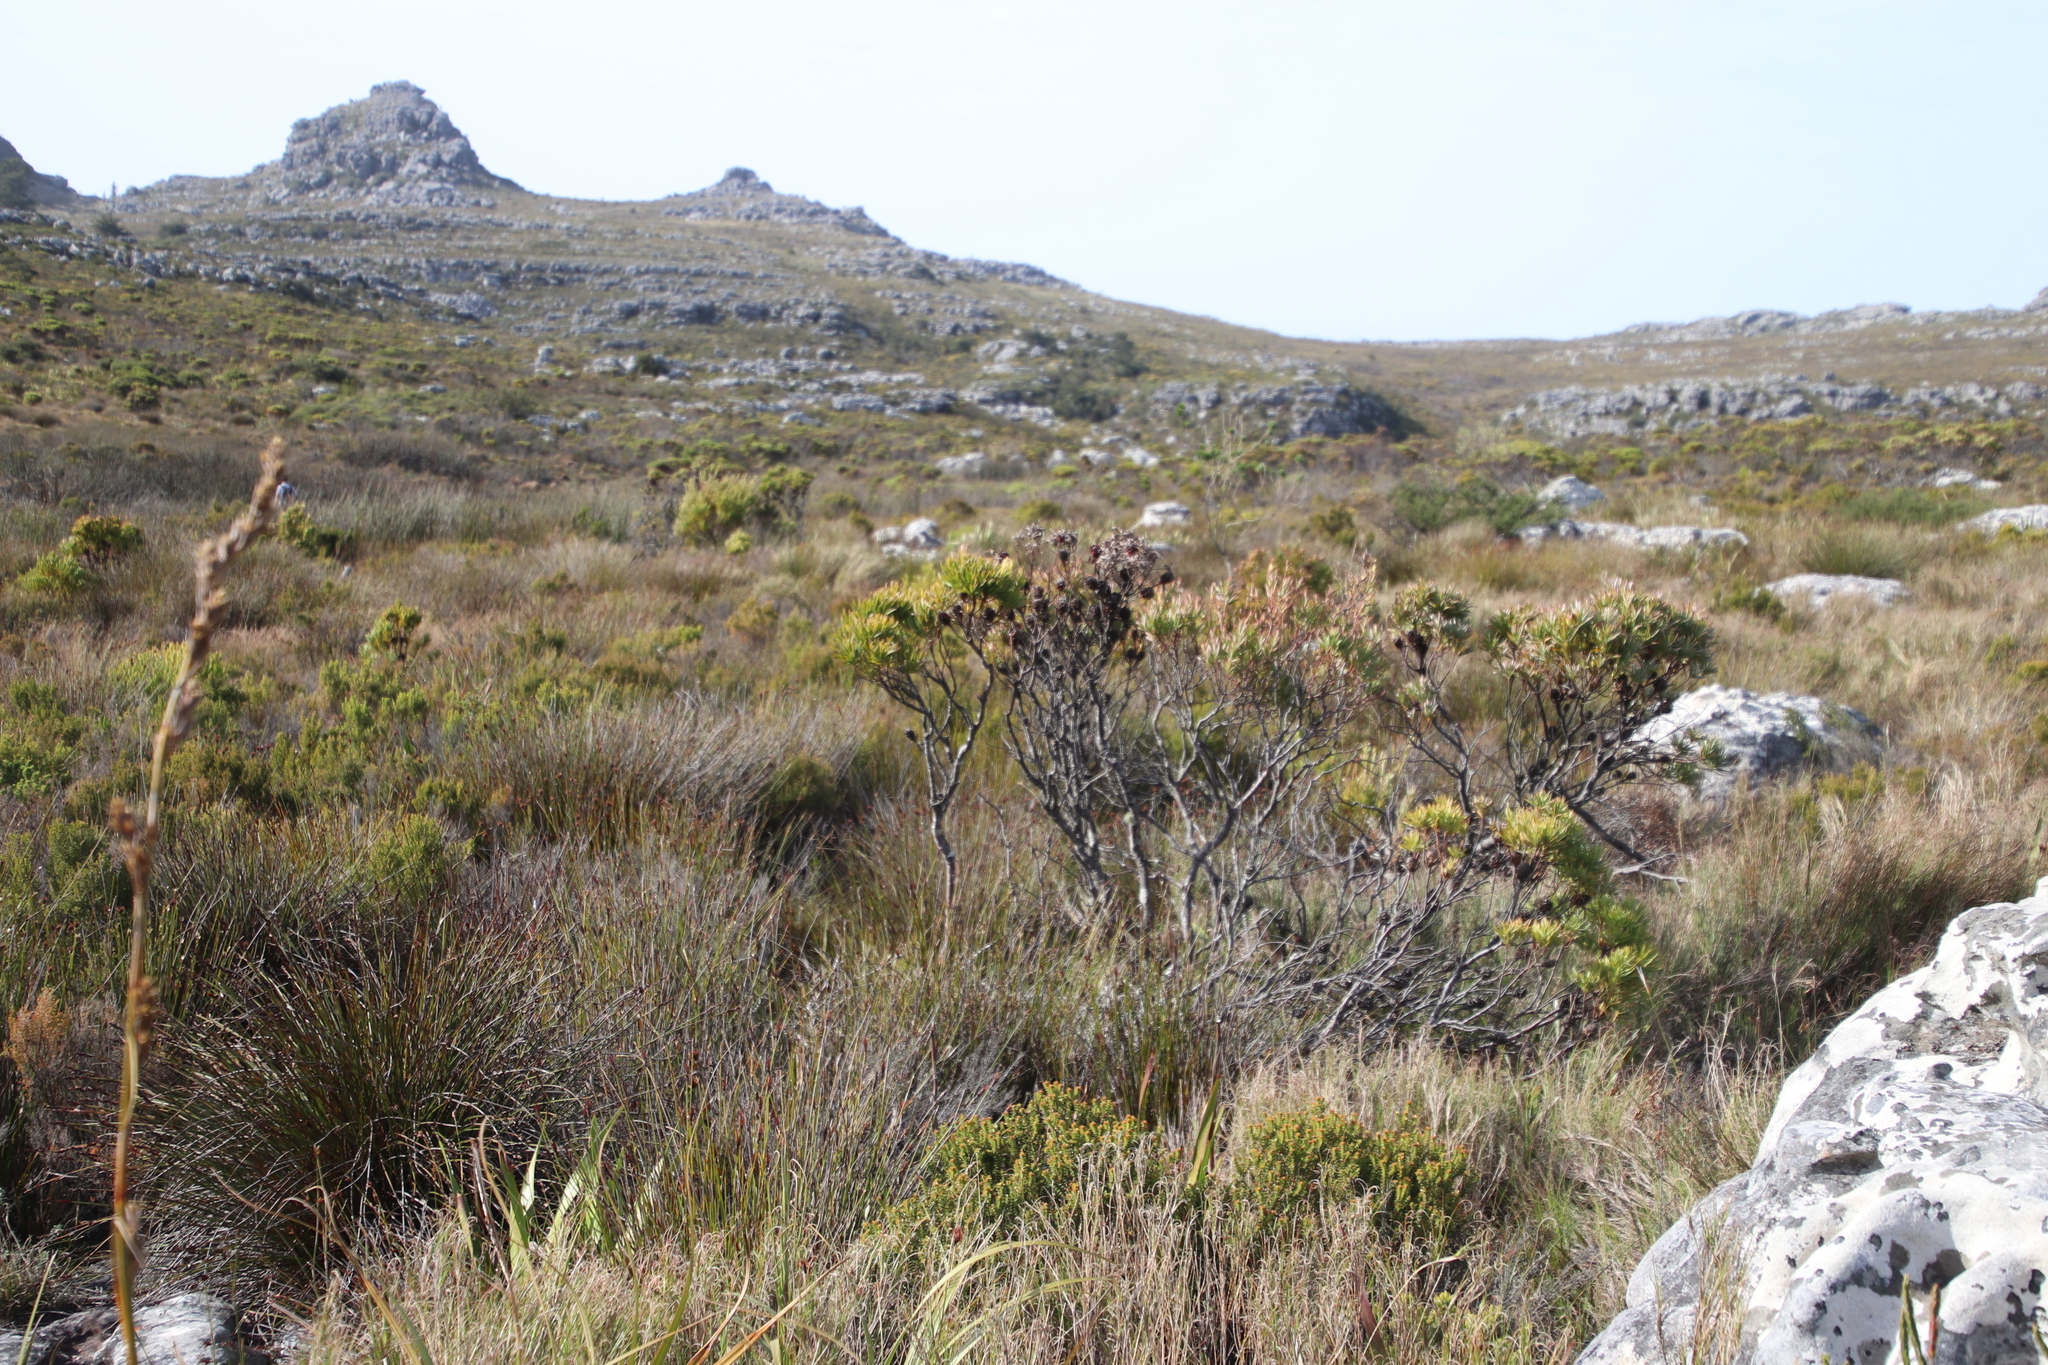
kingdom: Plantae
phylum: Tracheophyta
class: Magnoliopsida
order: Proteales
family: Proteaceae
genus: Leucadendron
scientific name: Leucadendron xanthoconus
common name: Sickle-leaf conebush
